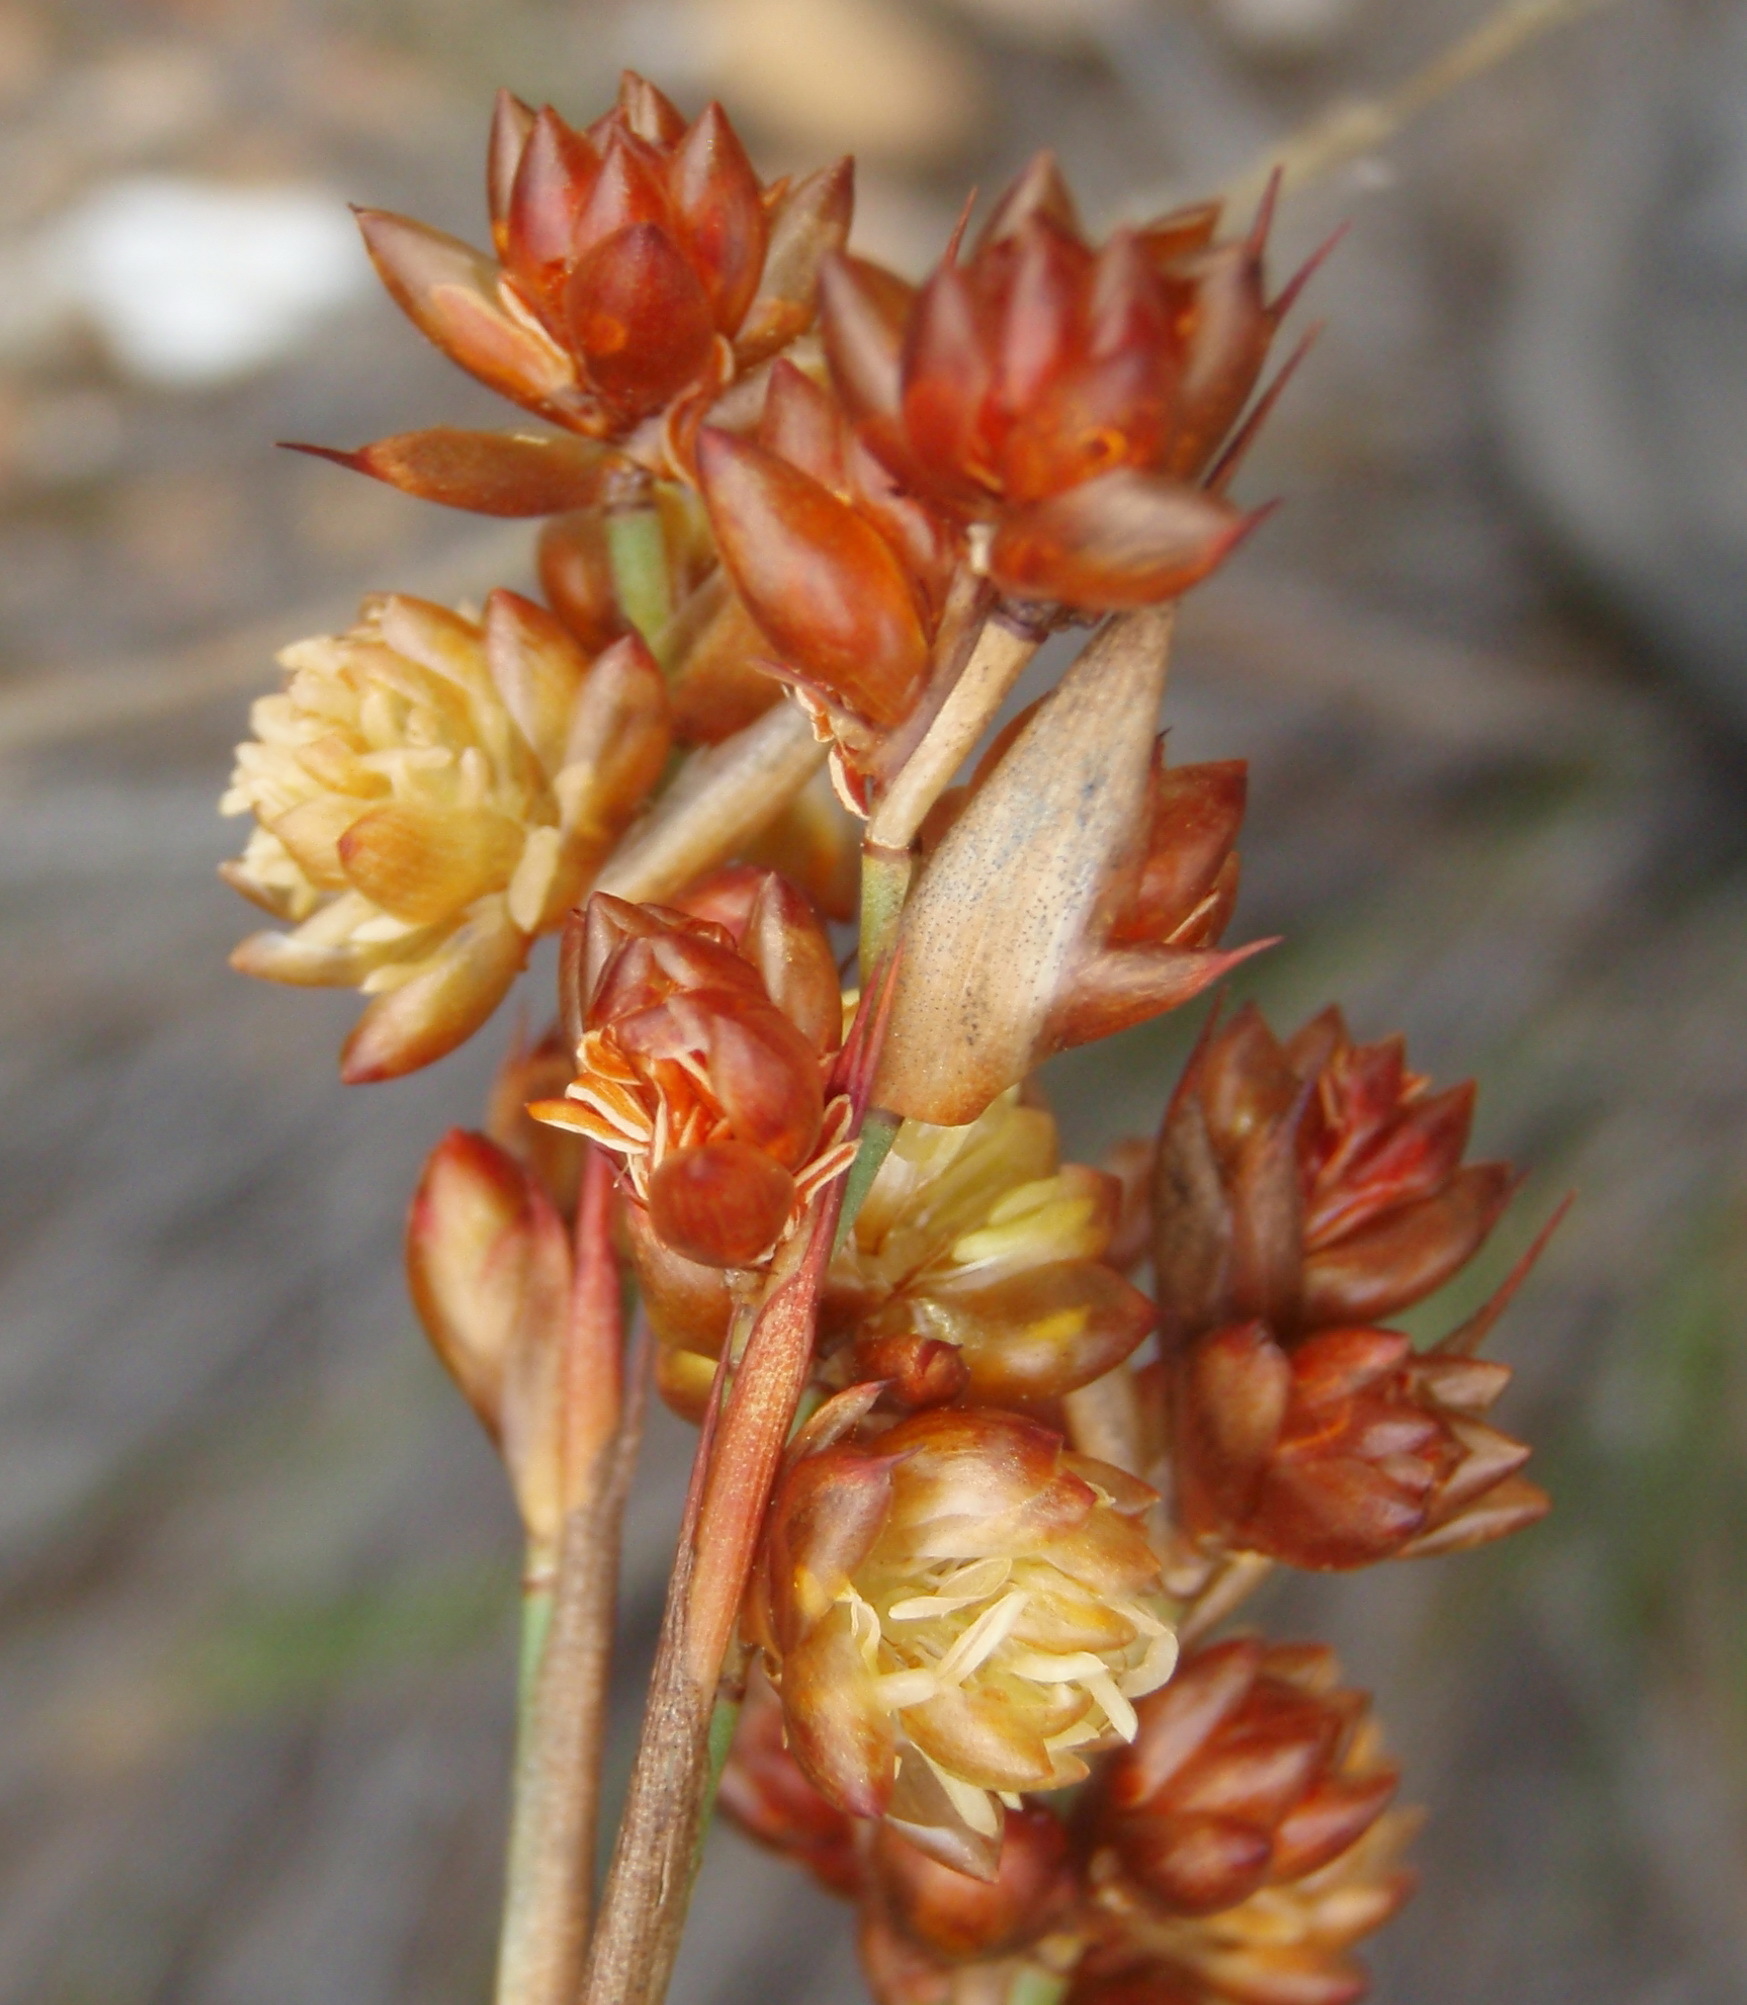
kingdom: Plantae
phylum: Tracheophyta
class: Liliopsida
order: Poales
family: Restionaceae
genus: Mastersiella
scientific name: Mastersiella purpurea
